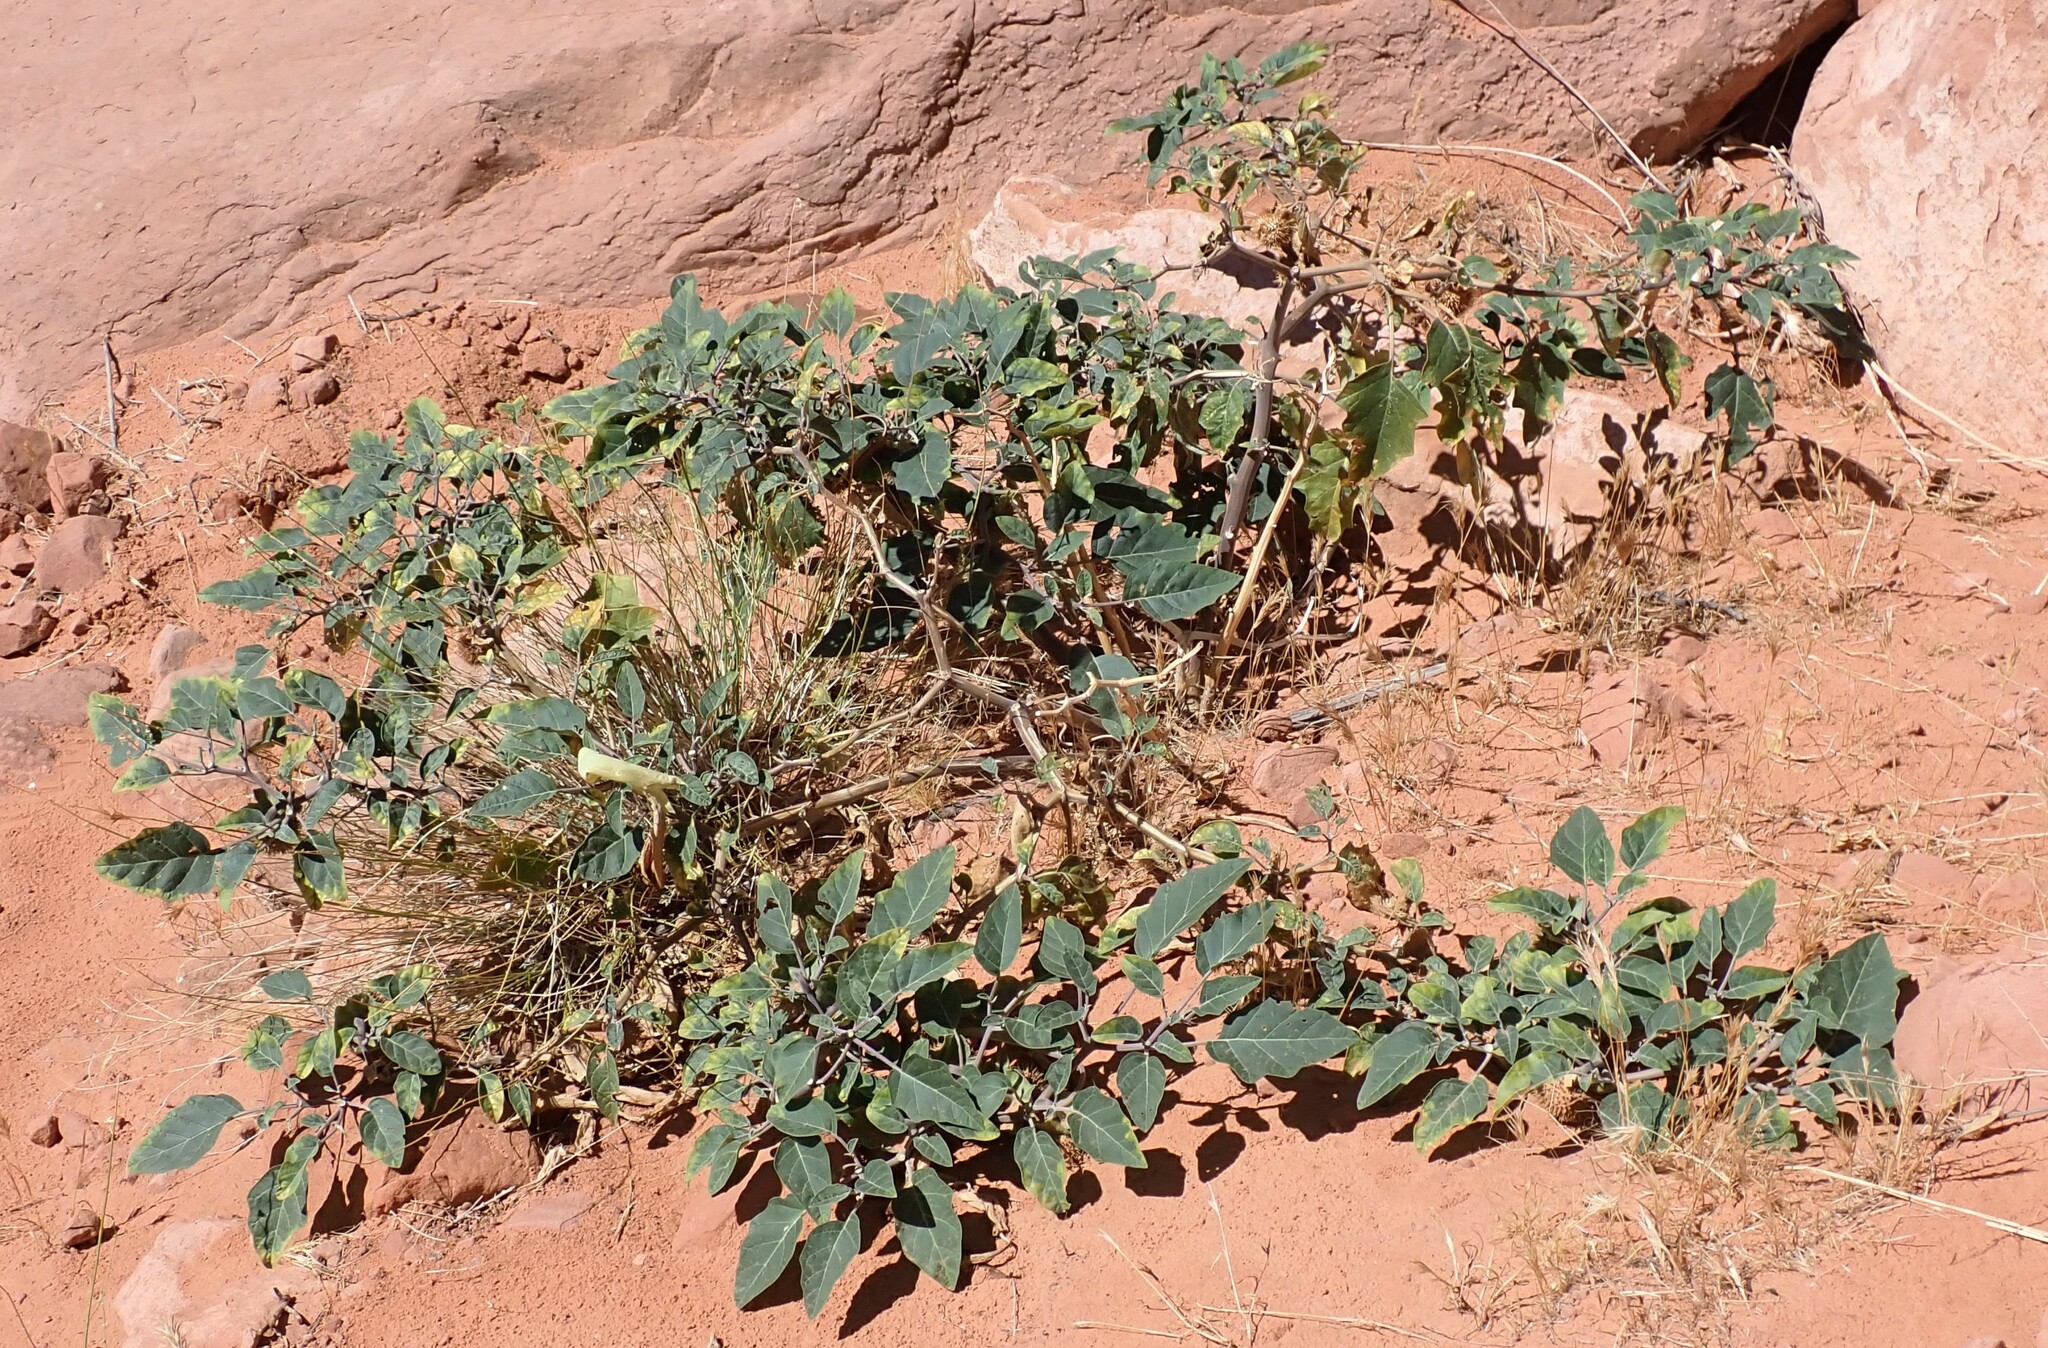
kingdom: Plantae
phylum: Tracheophyta
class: Magnoliopsida
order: Solanales
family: Solanaceae
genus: Datura
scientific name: Datura wrightii
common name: Sacred thorn-apple
